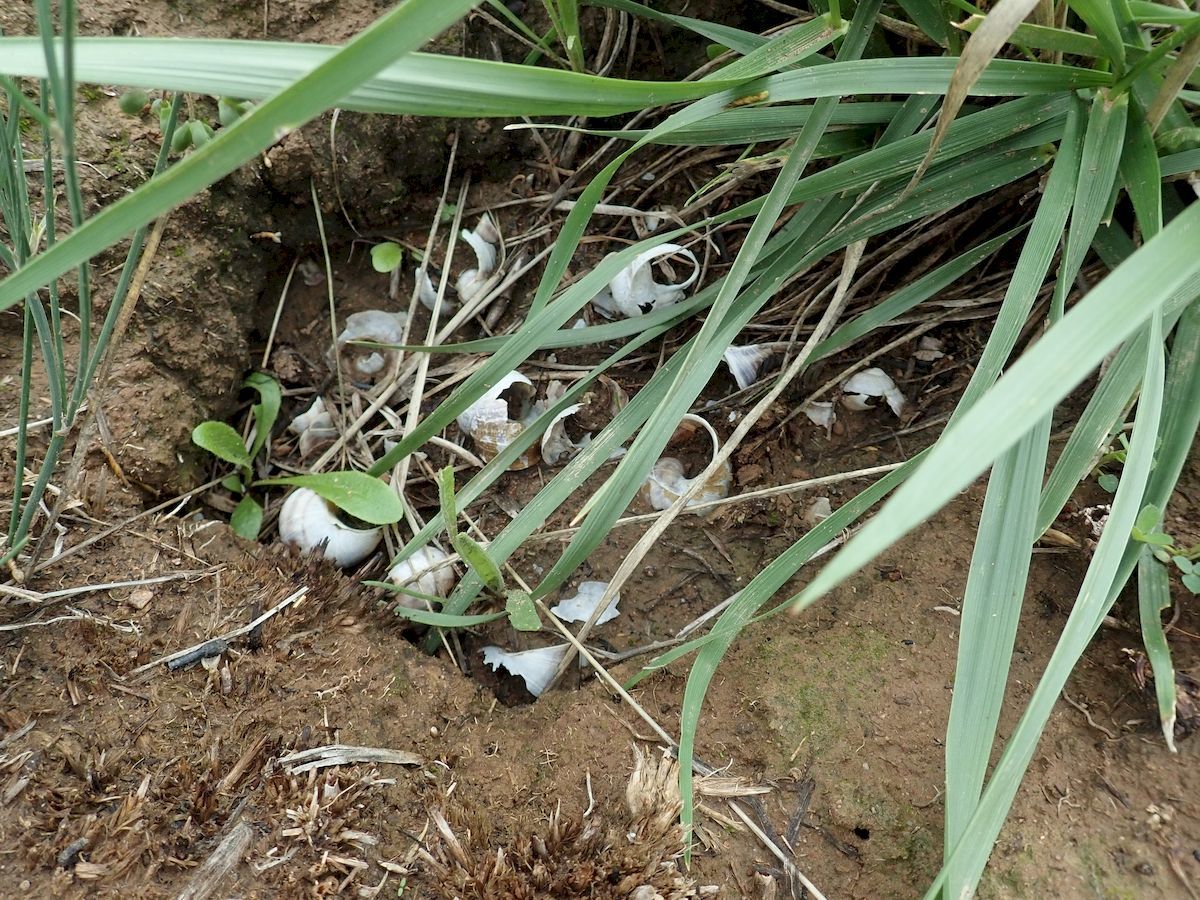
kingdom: Animalia
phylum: Mollusca
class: Gastropoda
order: Stylommatophora
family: Helicidae
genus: Cornu
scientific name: Cornu aspersum
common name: Brown garden snail
